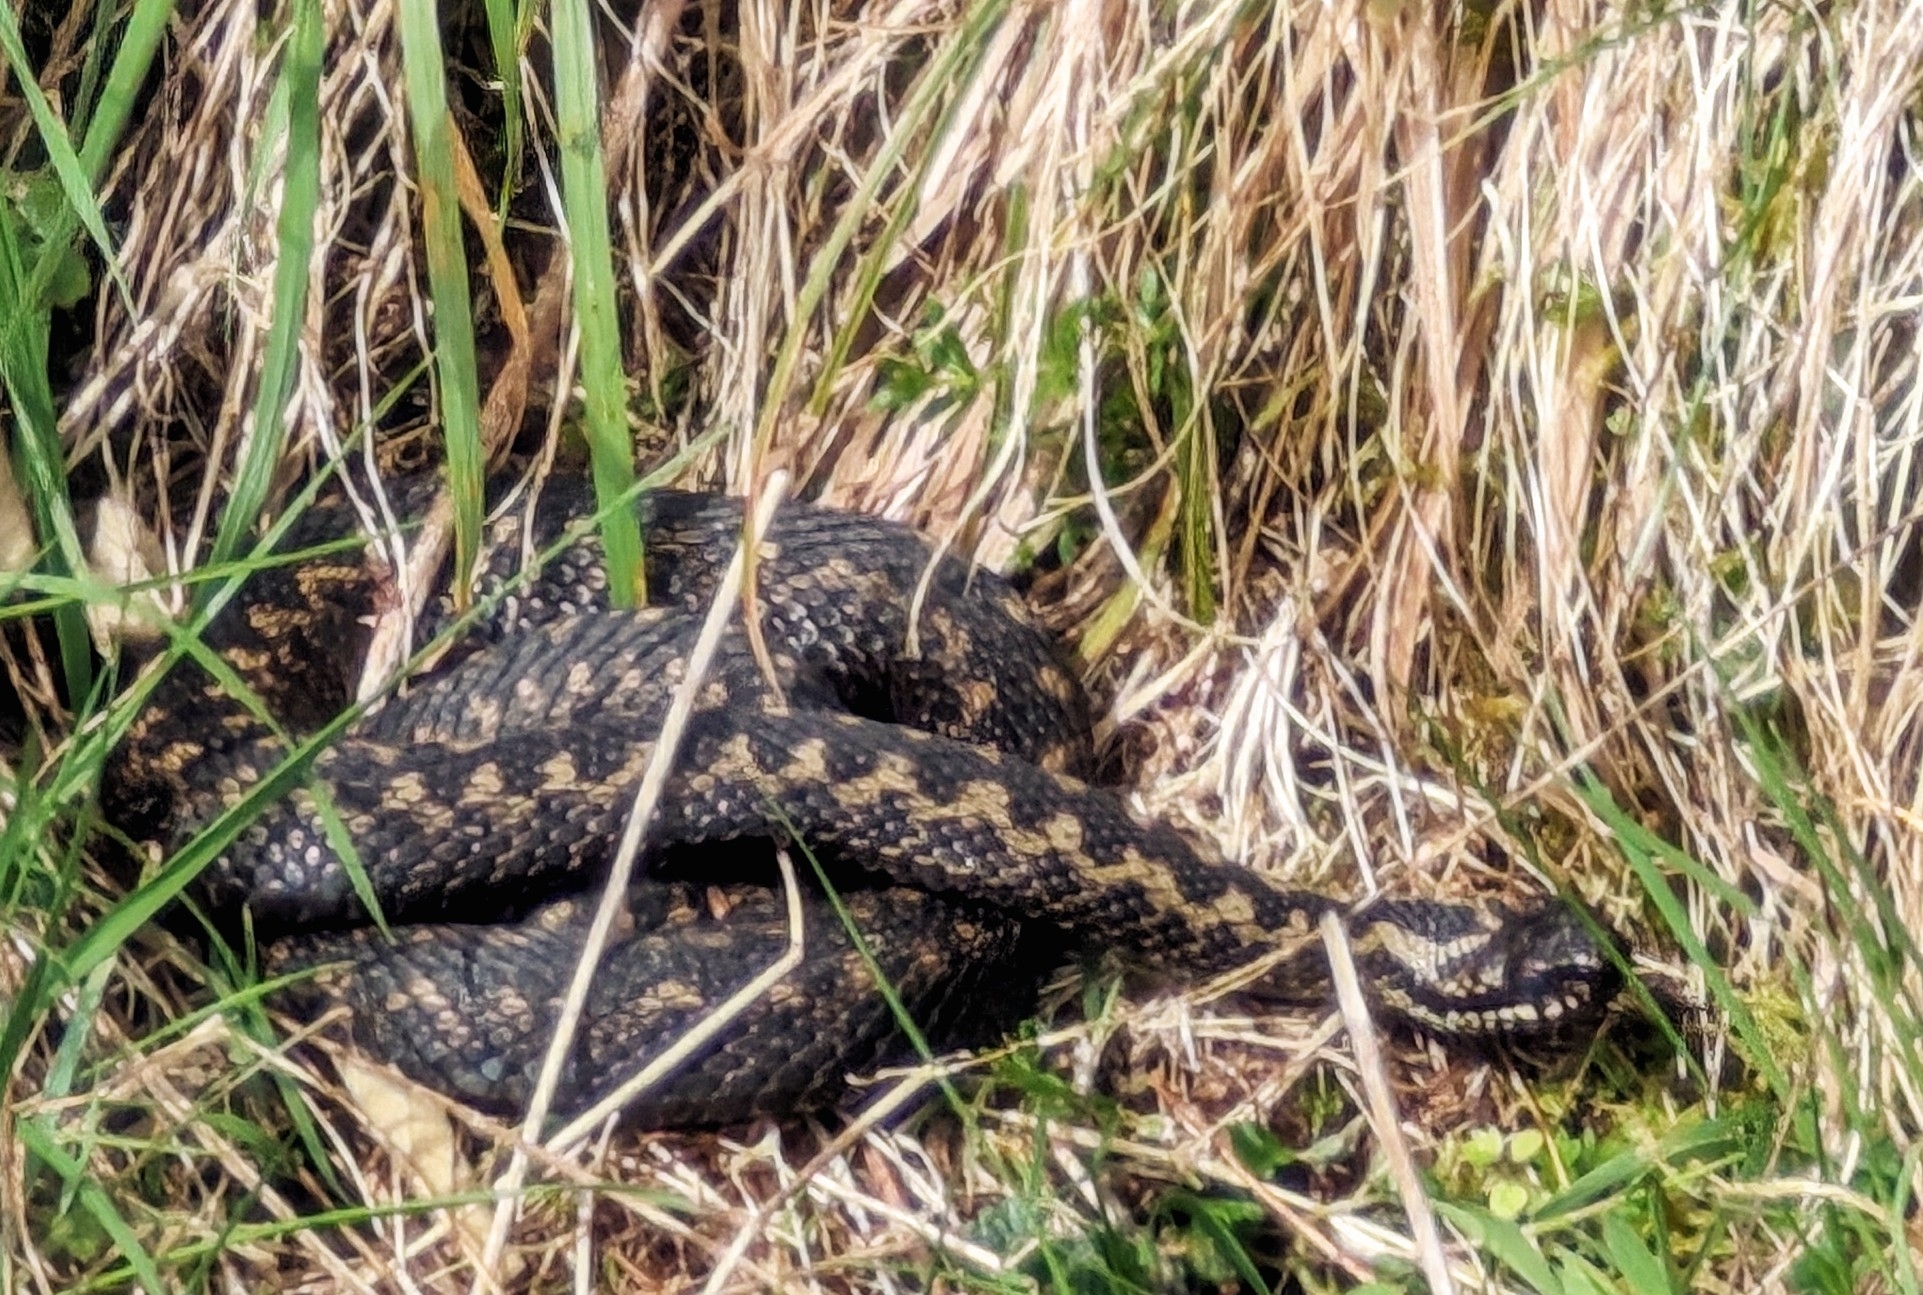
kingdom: Animalia
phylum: Chordata
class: Squamata
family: Viperidae
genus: Vipera
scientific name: Vipera berus
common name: Adder
